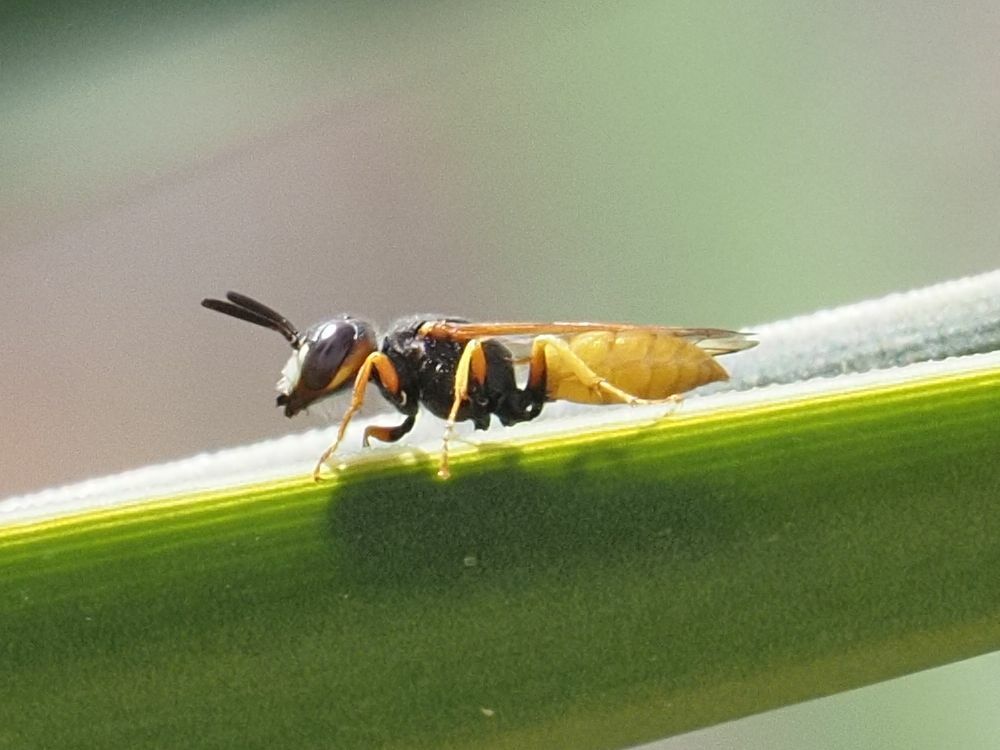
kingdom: Animalia
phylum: Arthropoda
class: Insecta
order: Hymenoptera
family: Crabronidae
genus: Philanthus
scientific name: Philanthus triangulum
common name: Bee wolf
